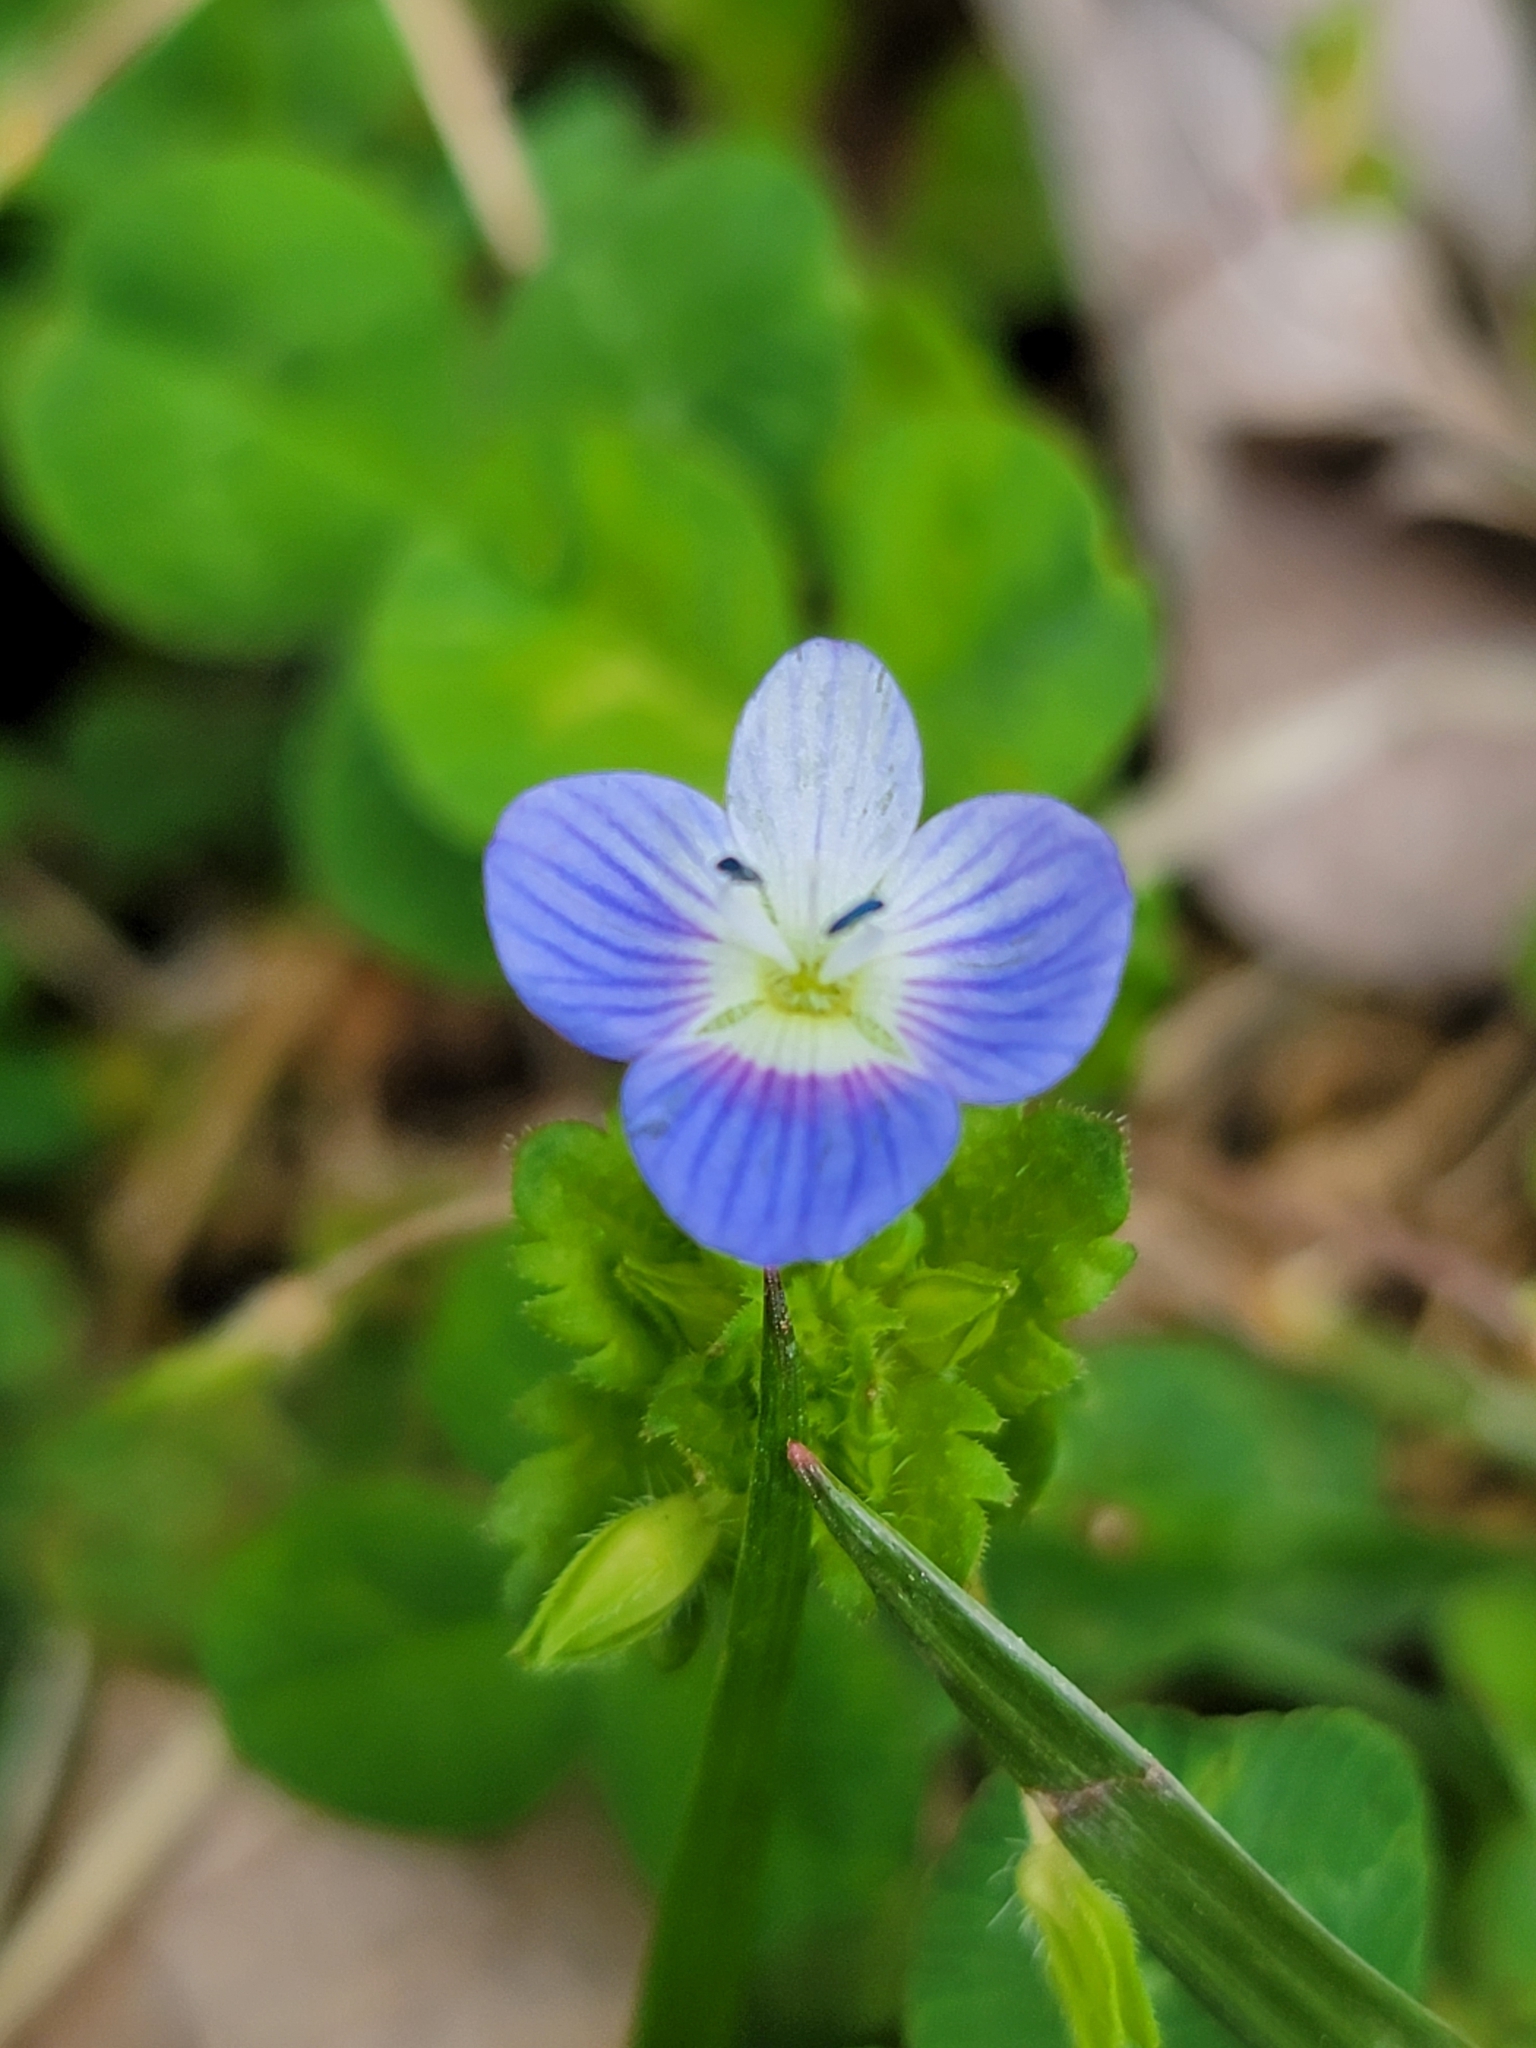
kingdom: Plantae
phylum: Tracheophyta
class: Magnoliopsida
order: Lamiales
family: Plantaginaceae
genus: Veronica
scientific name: Veronica persica
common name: Common field-speedwell
